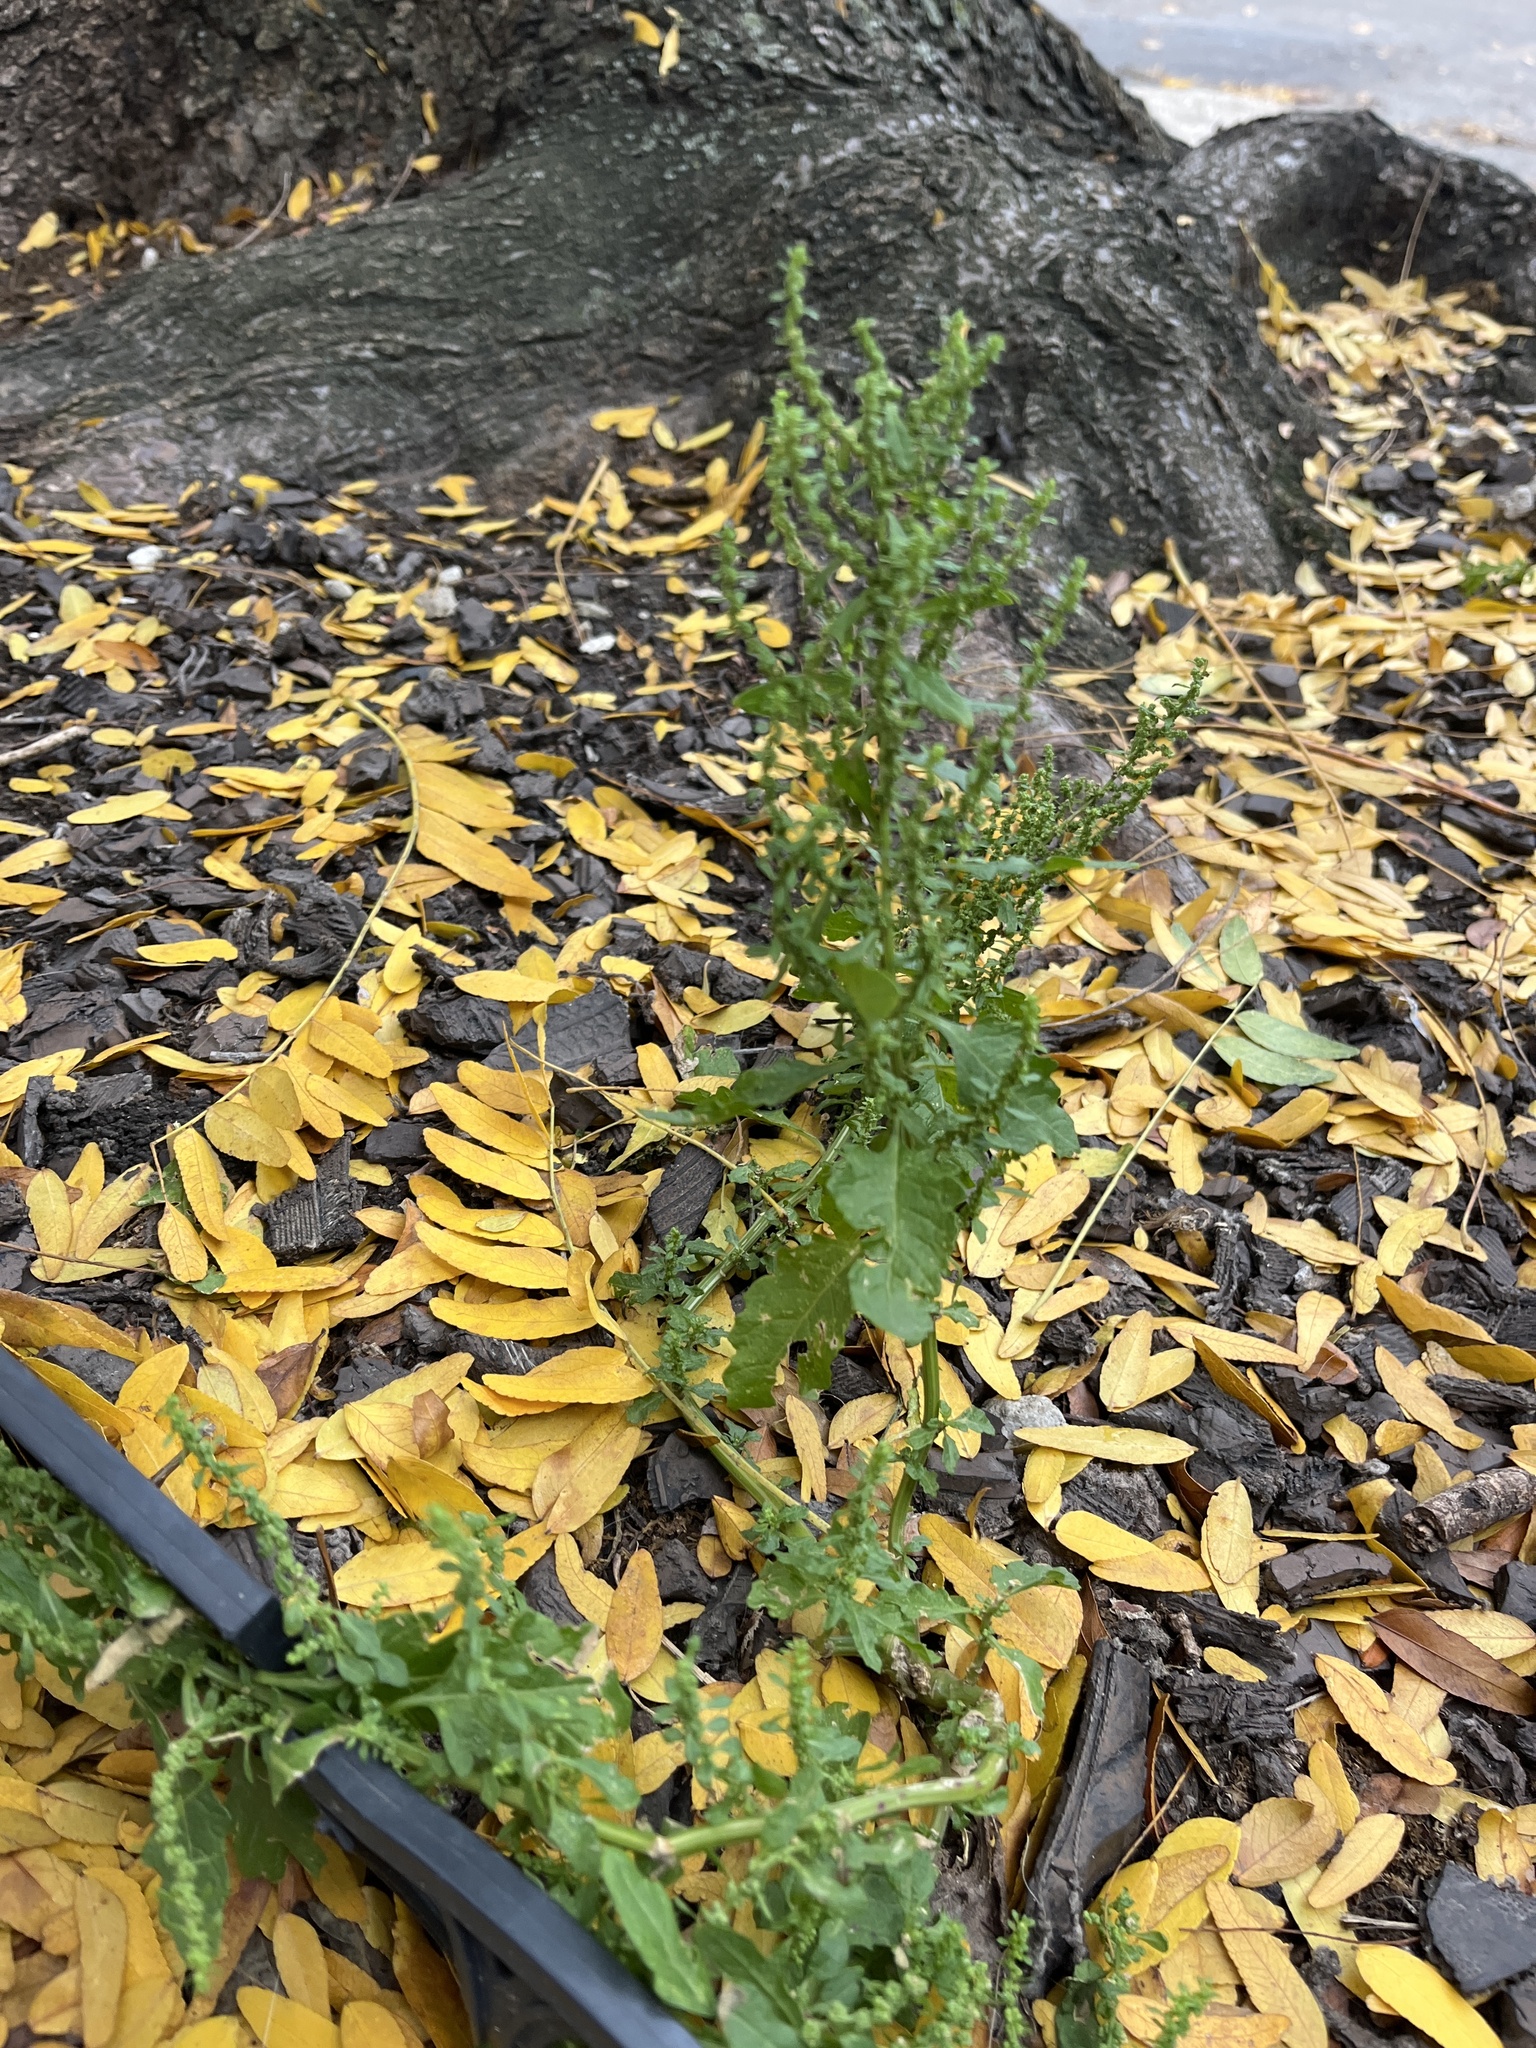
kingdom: Plantae
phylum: Tracheophyta
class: Magnoliopsida
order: Caryophyllales
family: Amaranthaceae
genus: Chenopodium
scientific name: Chenopodium album
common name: Fat-hen
